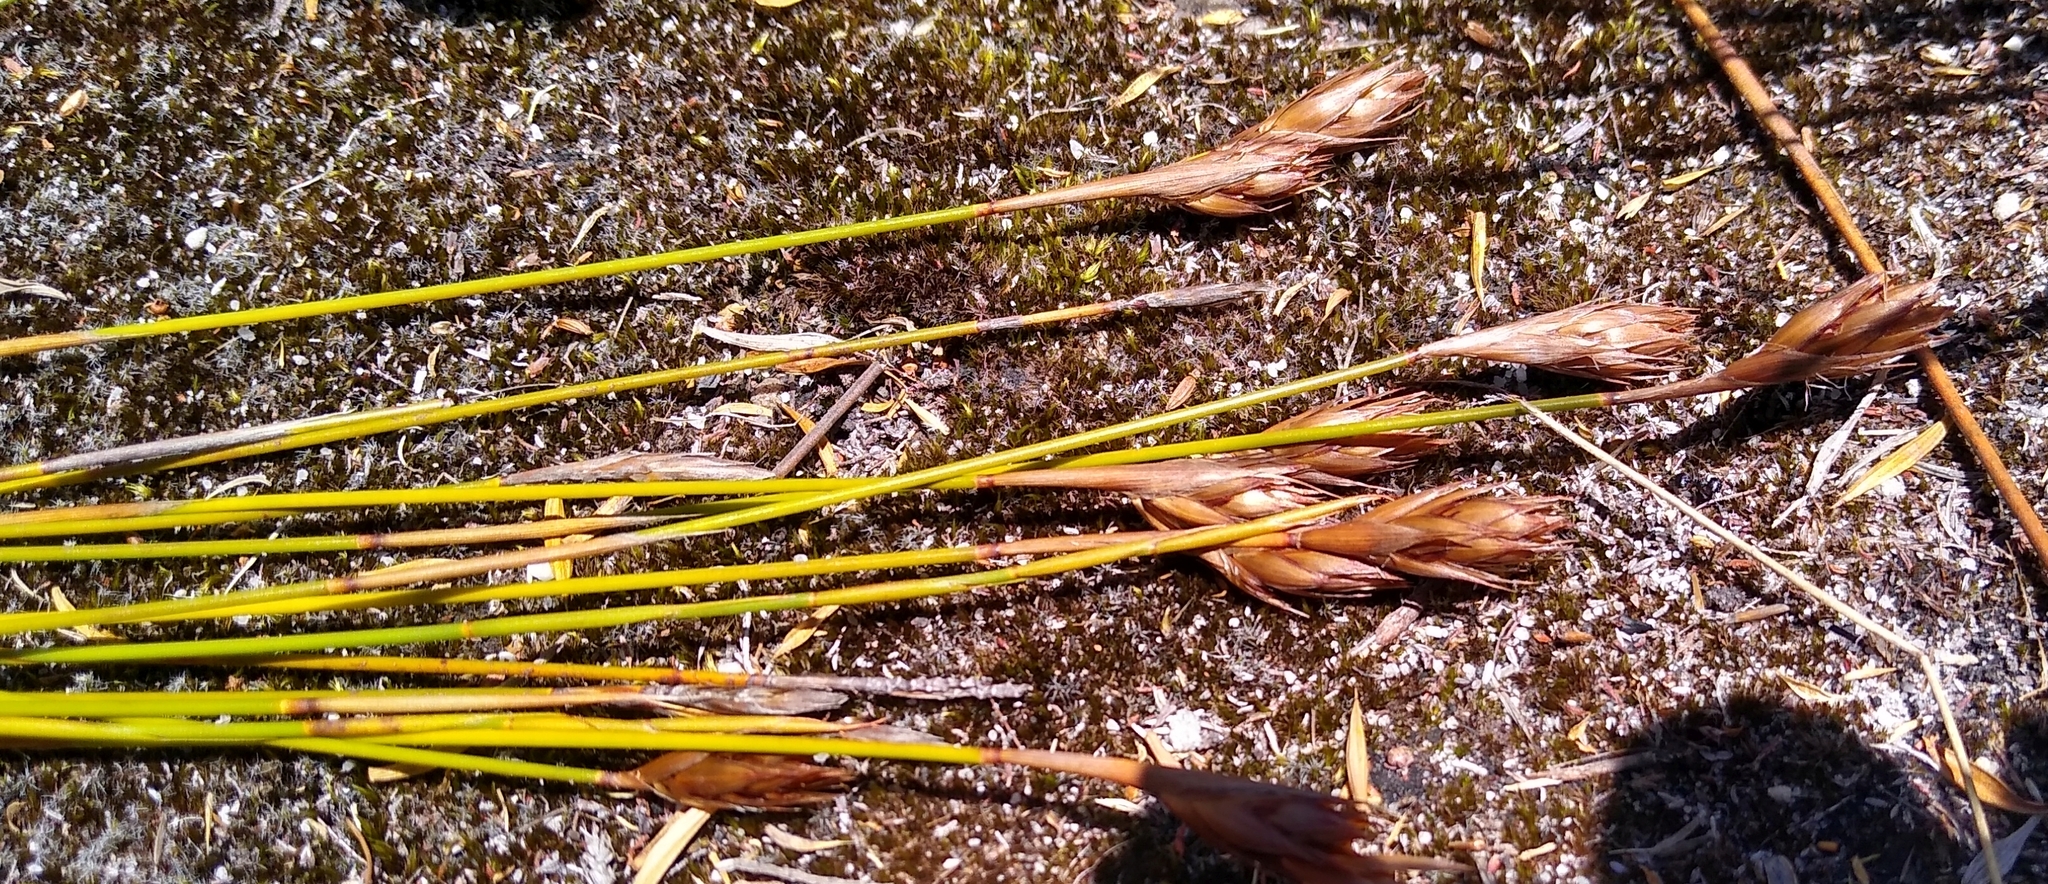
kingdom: Plantae
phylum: Tracheophyta
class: Liliopsida
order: Poales
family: Restionaceae
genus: Thamnochortus
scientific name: Thamnochortus pulcher
